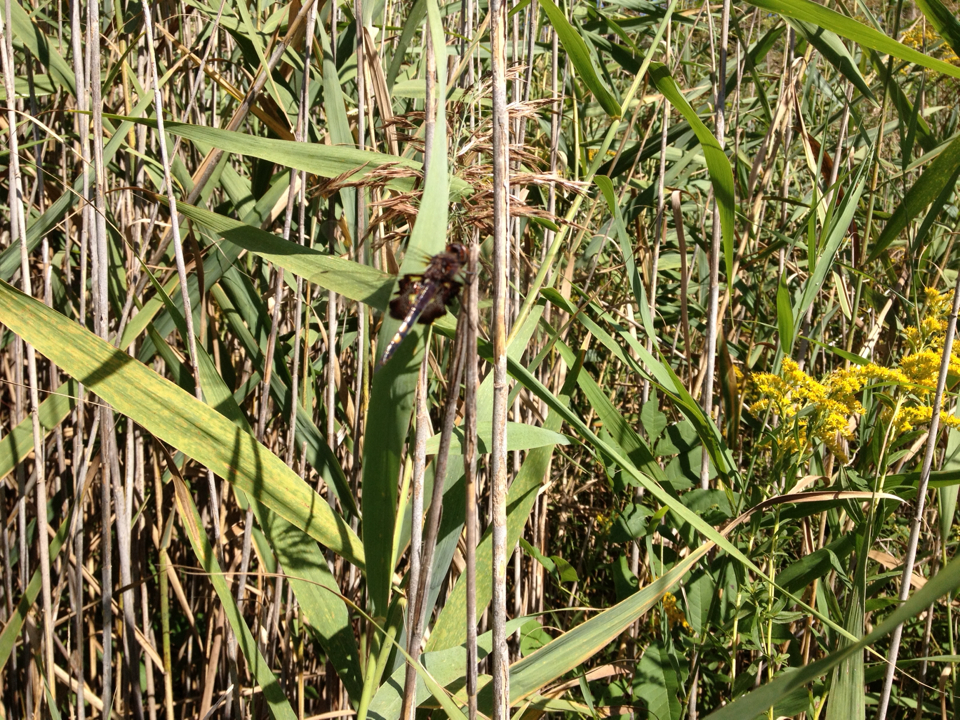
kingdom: Animalia
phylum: Arthropoda
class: Insecta
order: Odonata
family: Libellulidae
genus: Tramea
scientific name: Tramea lacerata
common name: Black saddlebags
